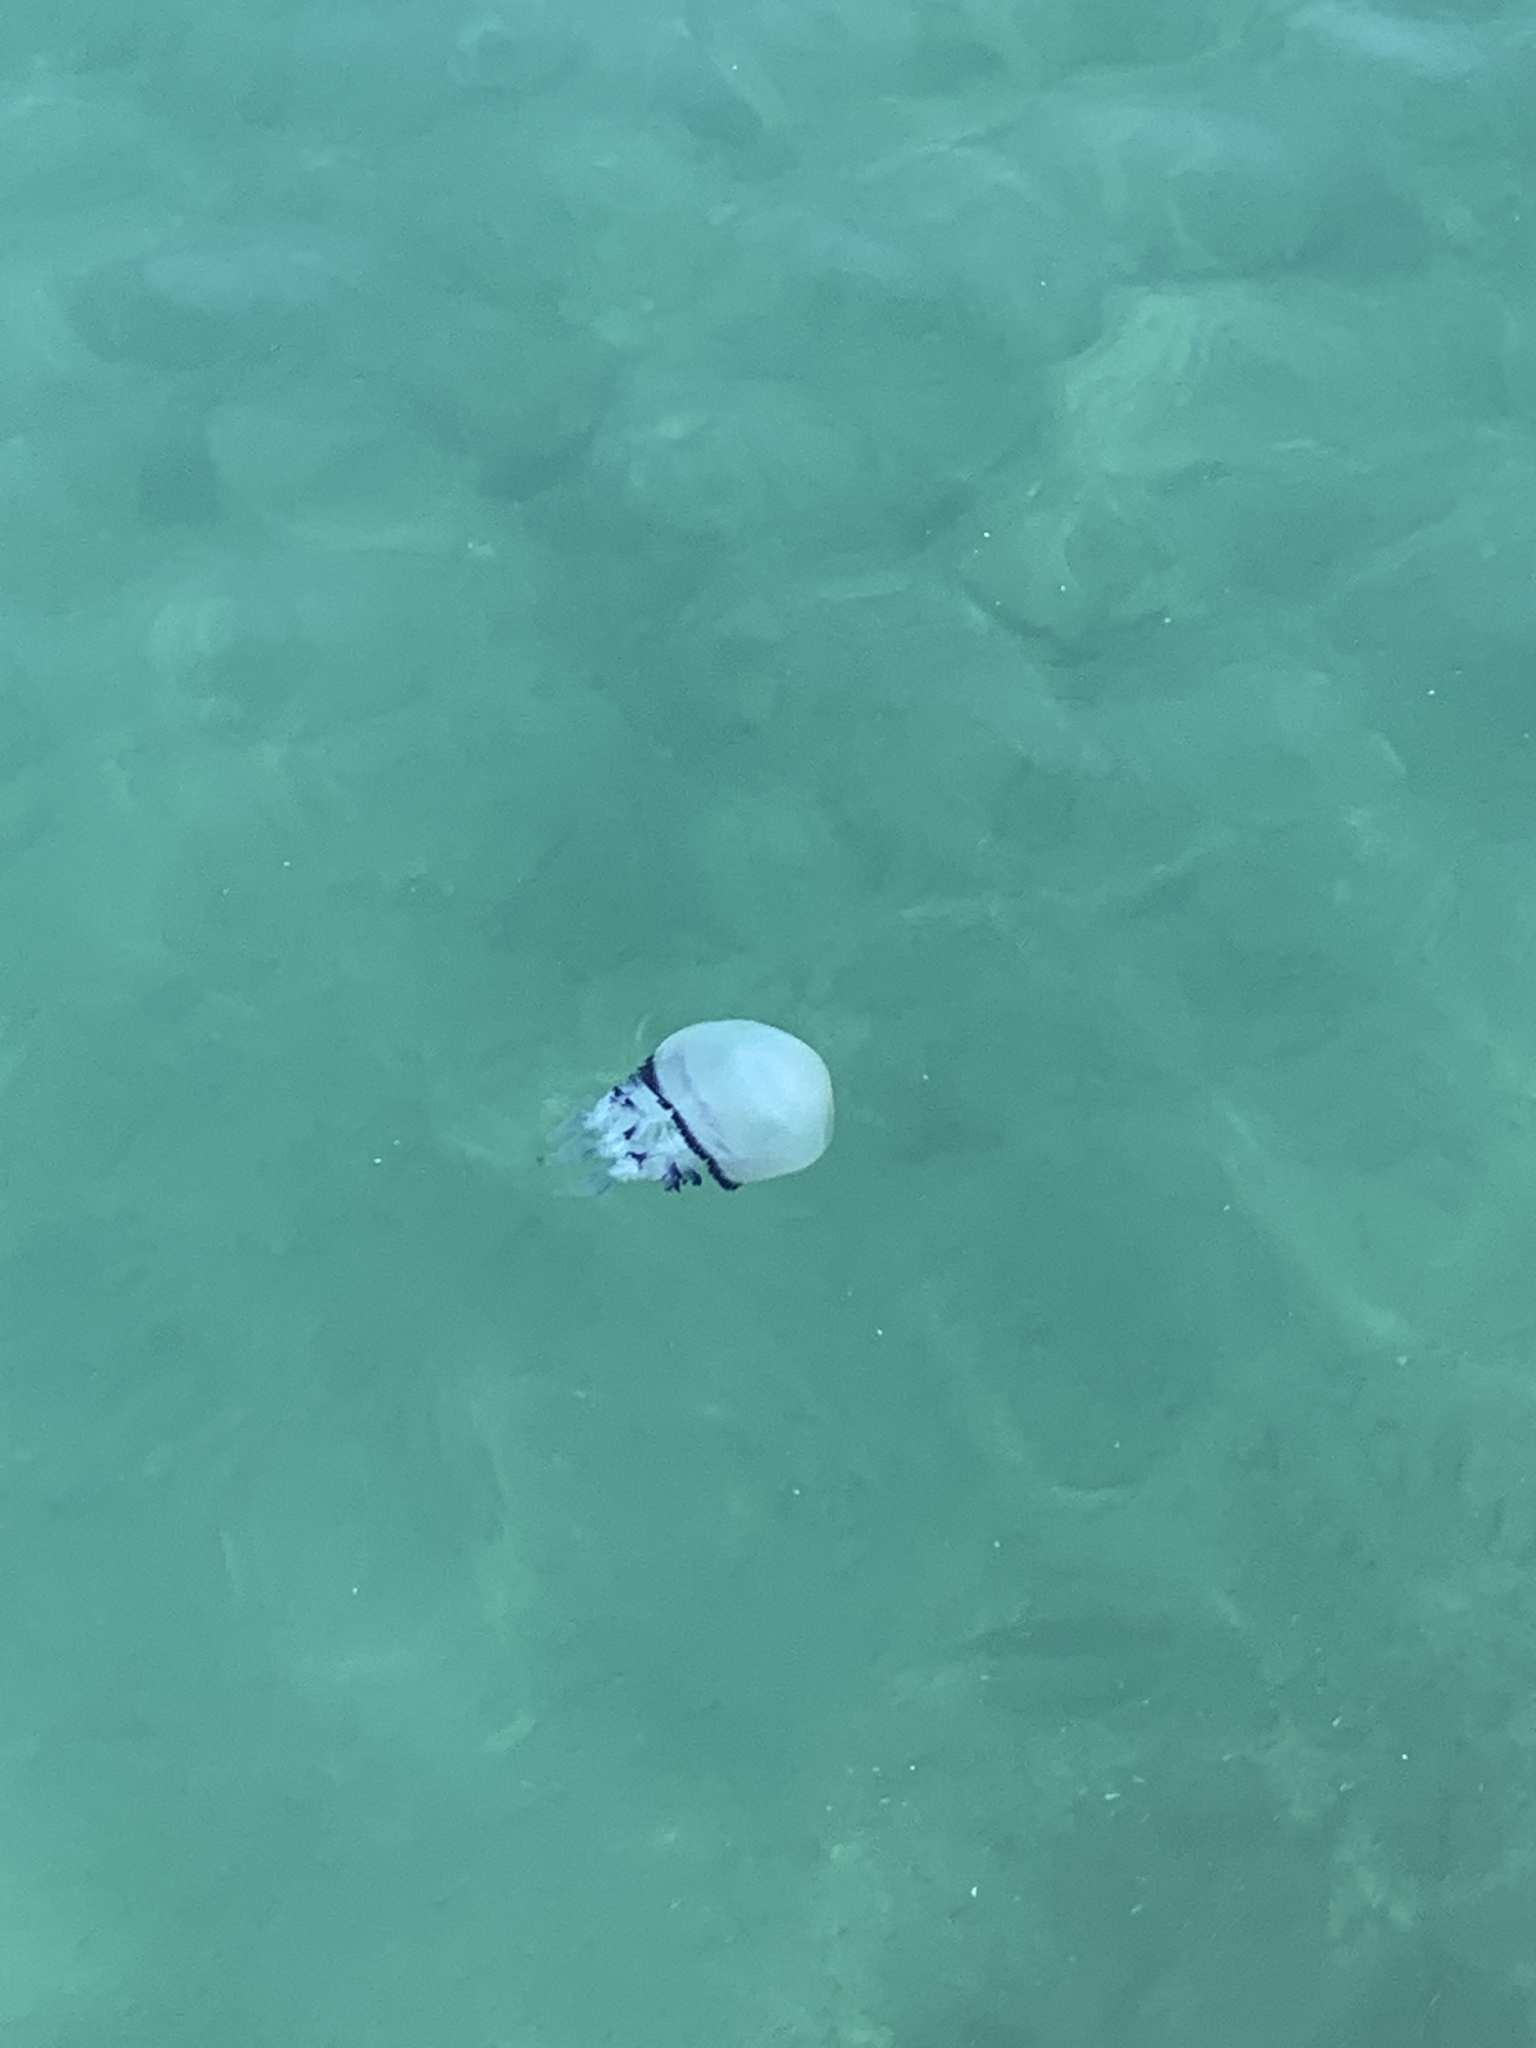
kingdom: Animalia
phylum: Cnidaria
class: Scyphozoa
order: Rhizostomeae
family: Rhizostomatidae
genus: Rhizostoma
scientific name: Rhizostoma pulmo
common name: Barrel jellyfish
